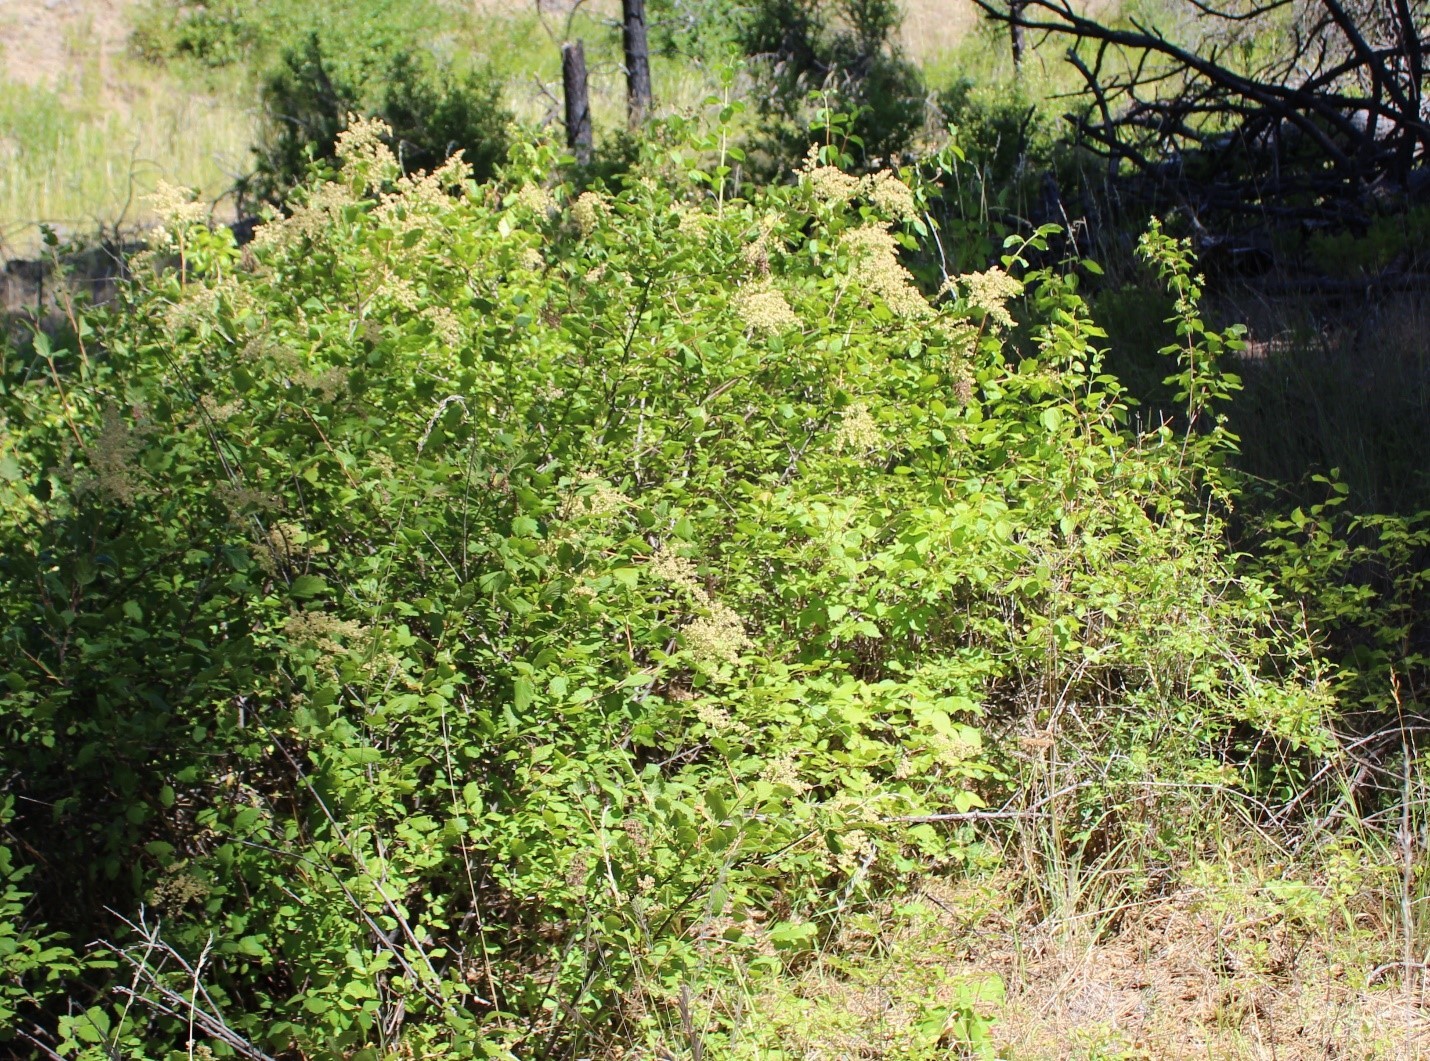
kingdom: Plantae
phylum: Tracheophyta
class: Magnoliopsida
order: Rosales
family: Rosaceae
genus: Holodiscus
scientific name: Holodiscus discolor
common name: Oceanspray
